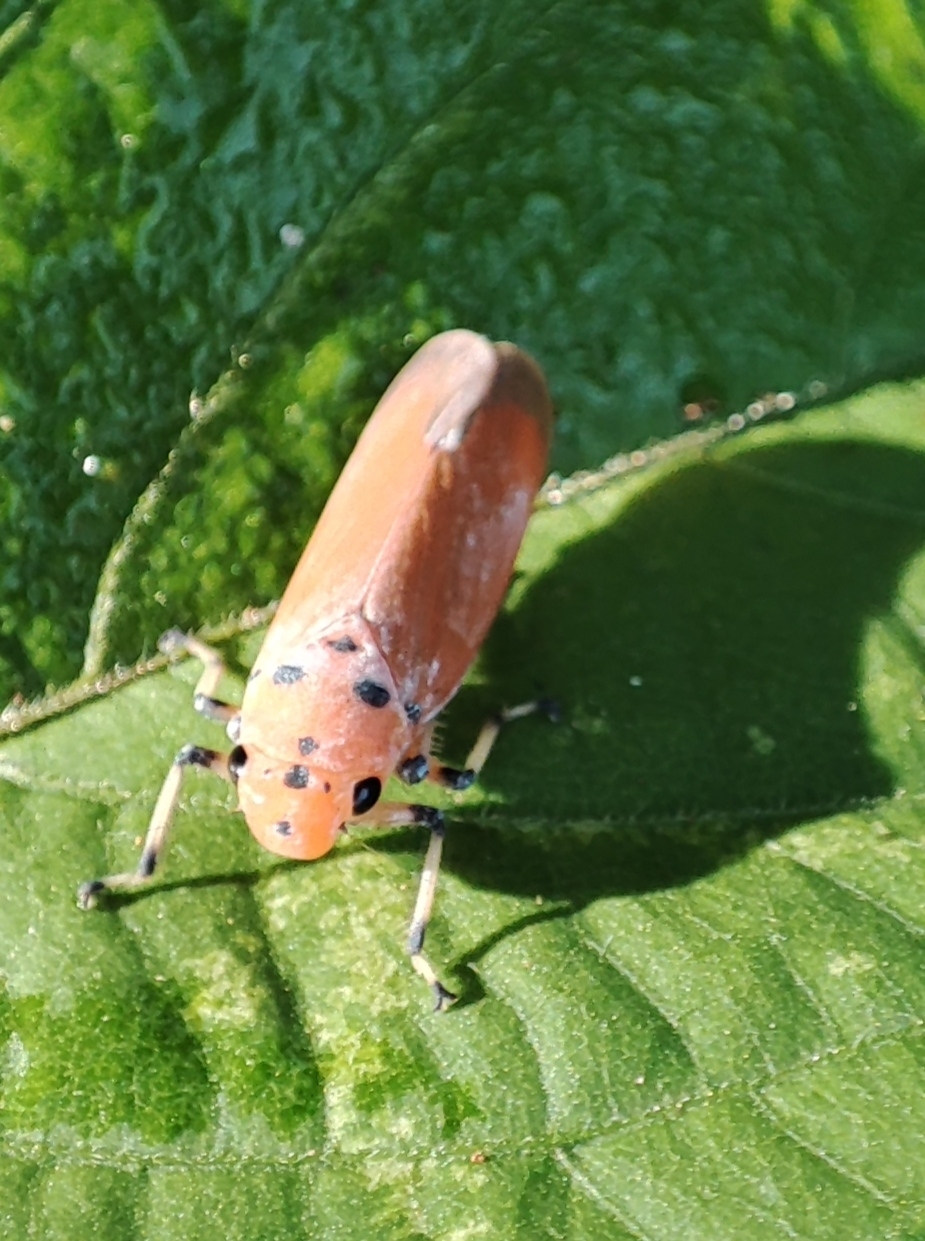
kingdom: Animalia
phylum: Arthropoda
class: Insecta
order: Hemiptera
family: Cicadellidae
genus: Bothrogonia
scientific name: Bothrogonia addita
